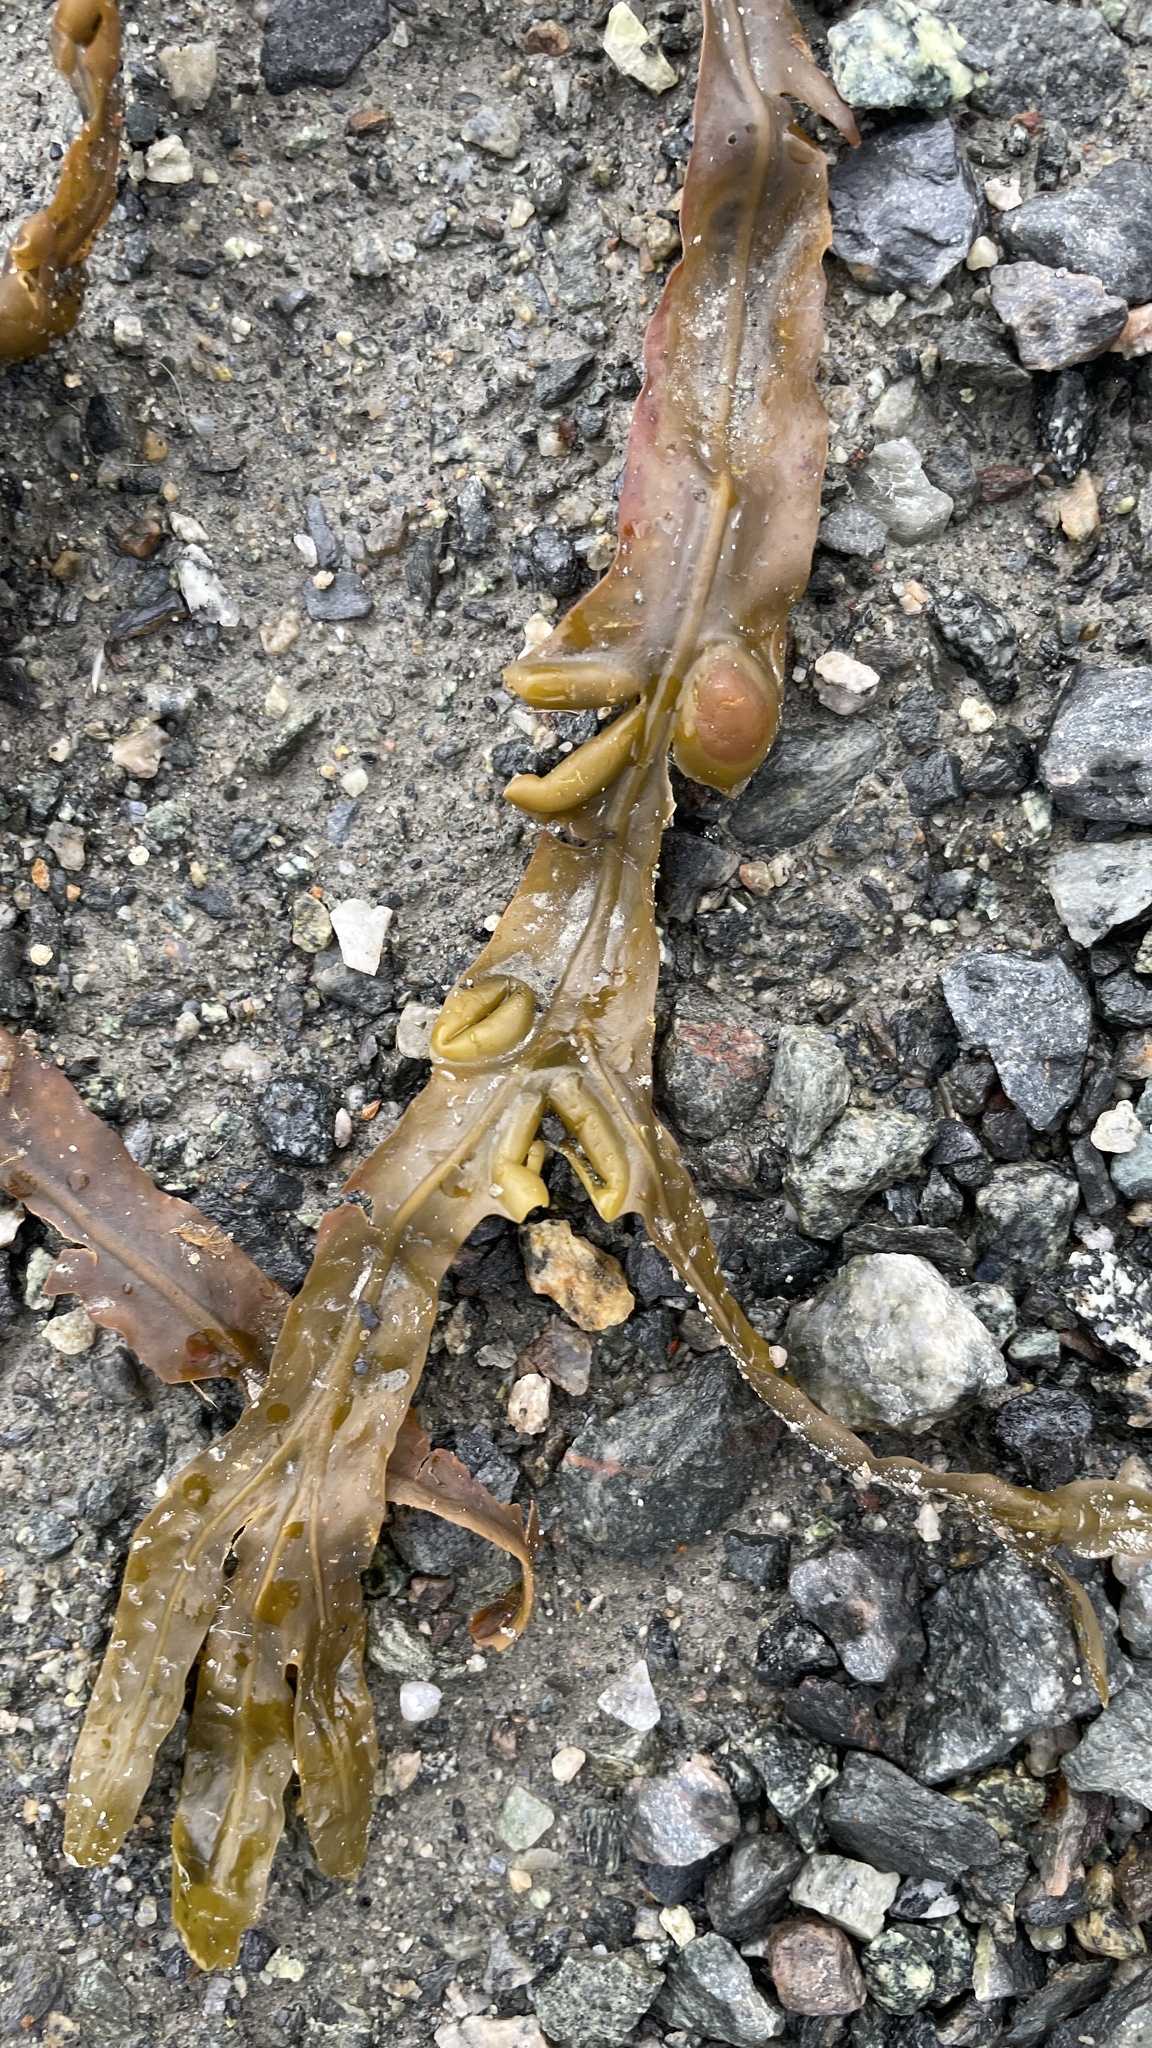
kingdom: Chromista
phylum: Ochrophyta
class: Phaeophyceae
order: Fucales
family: Fucaceae
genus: Fucus
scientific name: Fucus vesiculosus
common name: Bladder wrack
